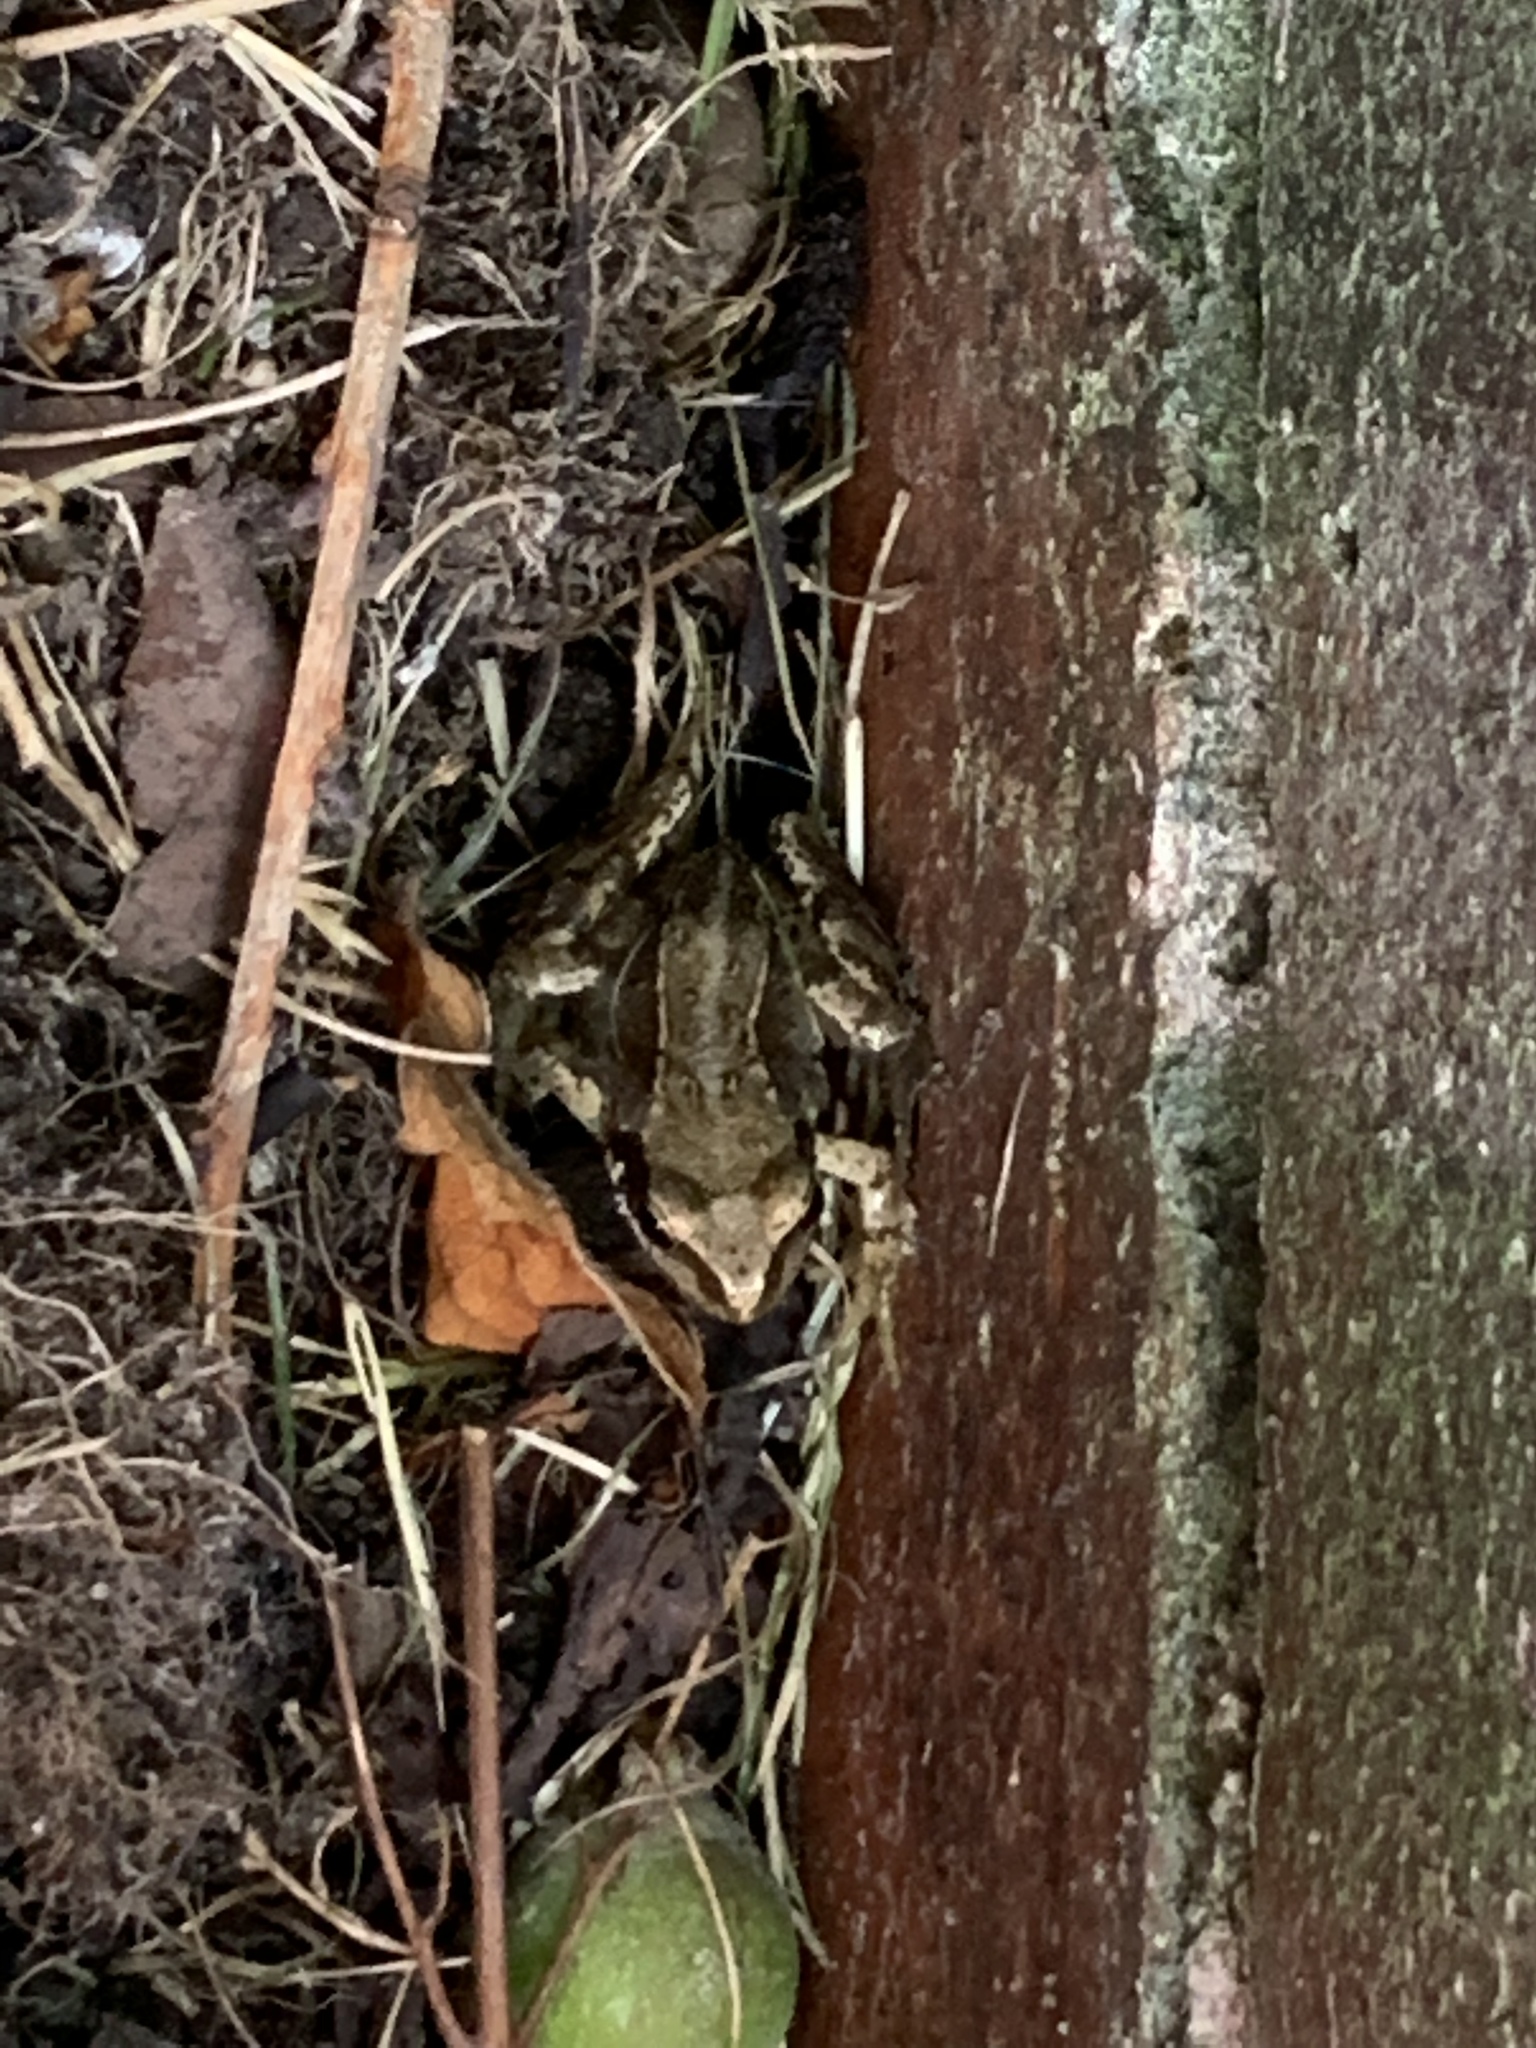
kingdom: Animalia
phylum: Chordata
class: Amphibia
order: Anura
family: Ranidae
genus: Rana
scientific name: Rana temporaria
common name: Common frog
